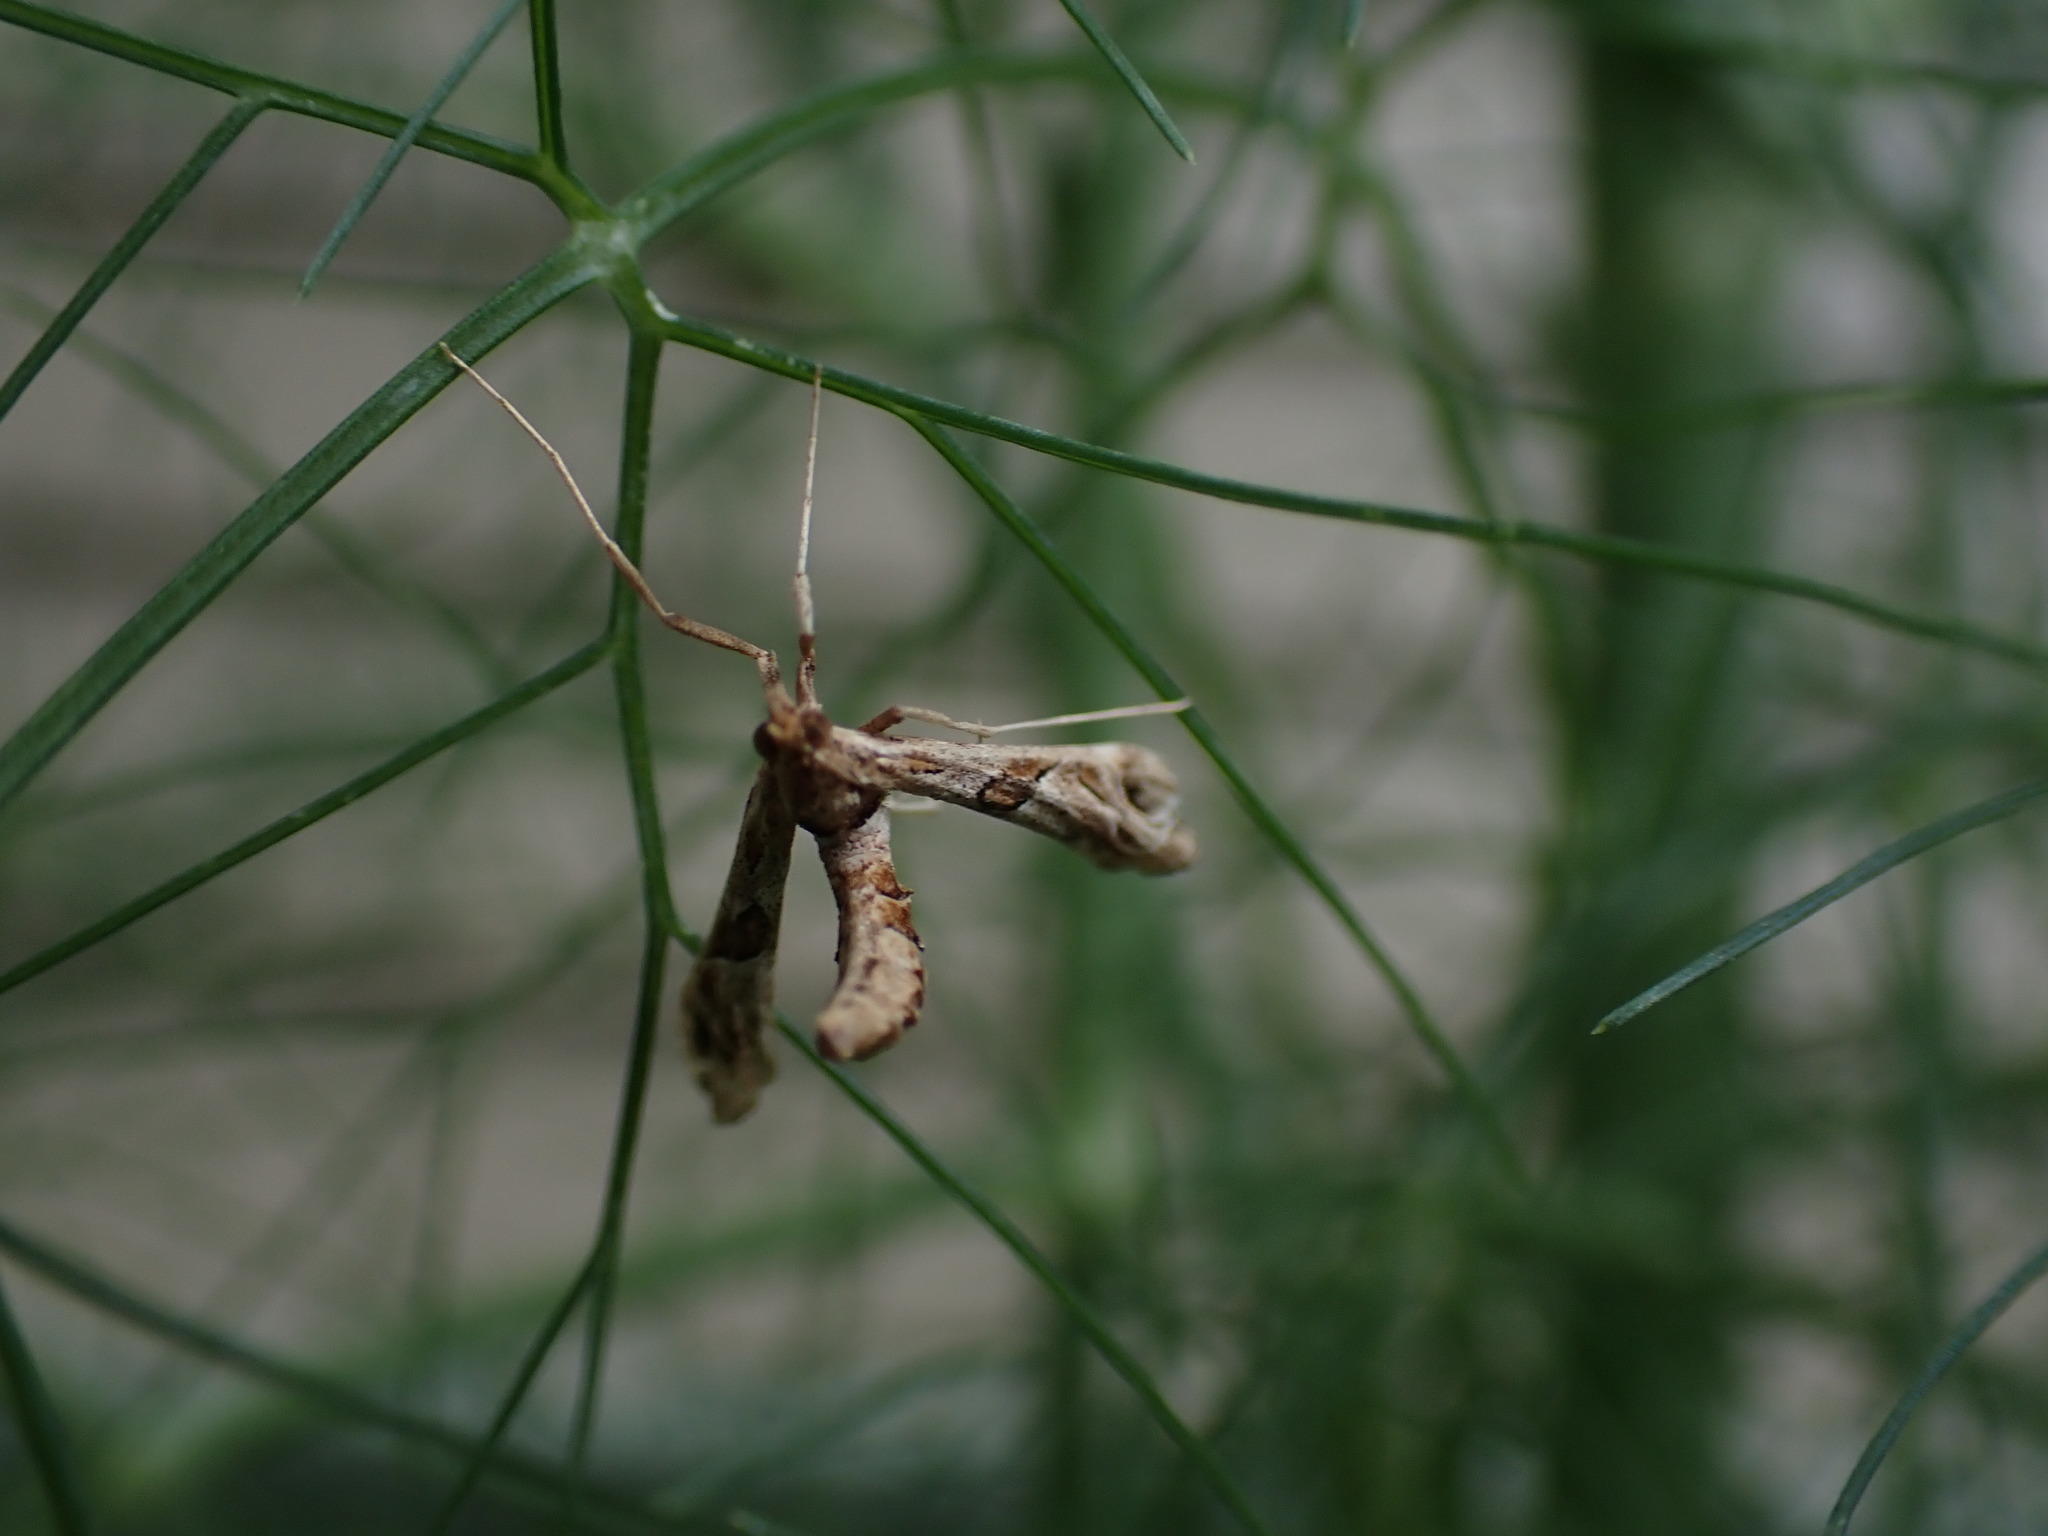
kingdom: Animalia
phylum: Arthropoda
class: Insecta
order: Lepidoptera
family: Crambidae
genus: Lineodes
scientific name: Lineodes interrupta
